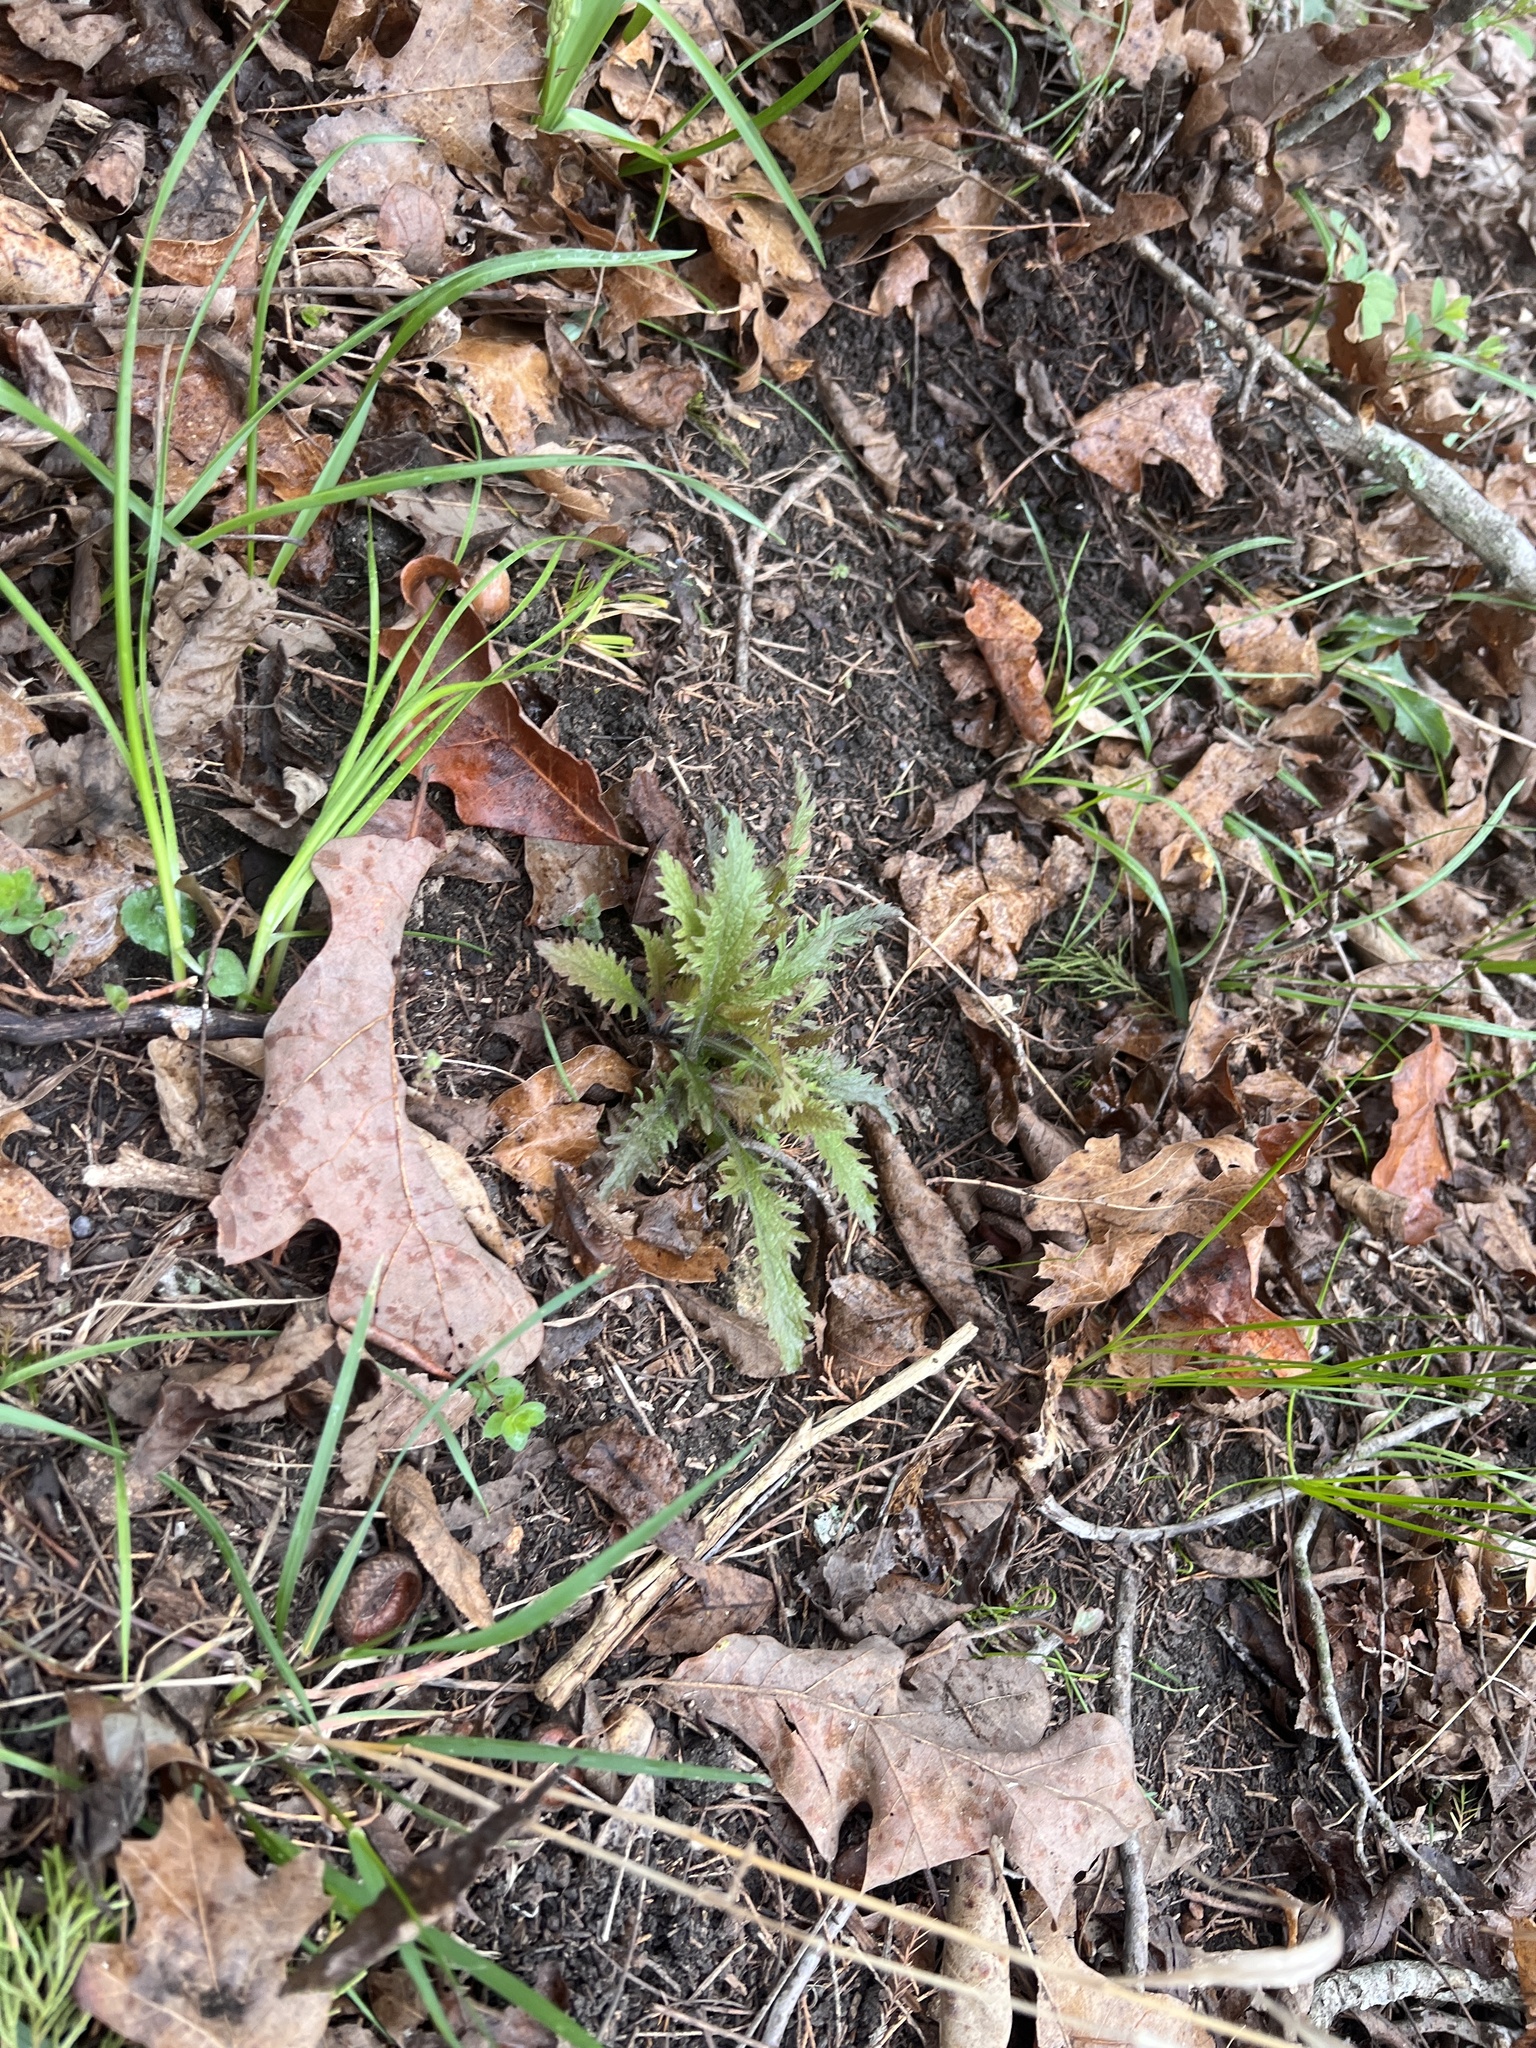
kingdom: Plantae
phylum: Tracheophyta
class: Magnoliopsida
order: Lamiales
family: Orobanchaceae
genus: Dasistoma
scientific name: Dasistoma macrophyllum
